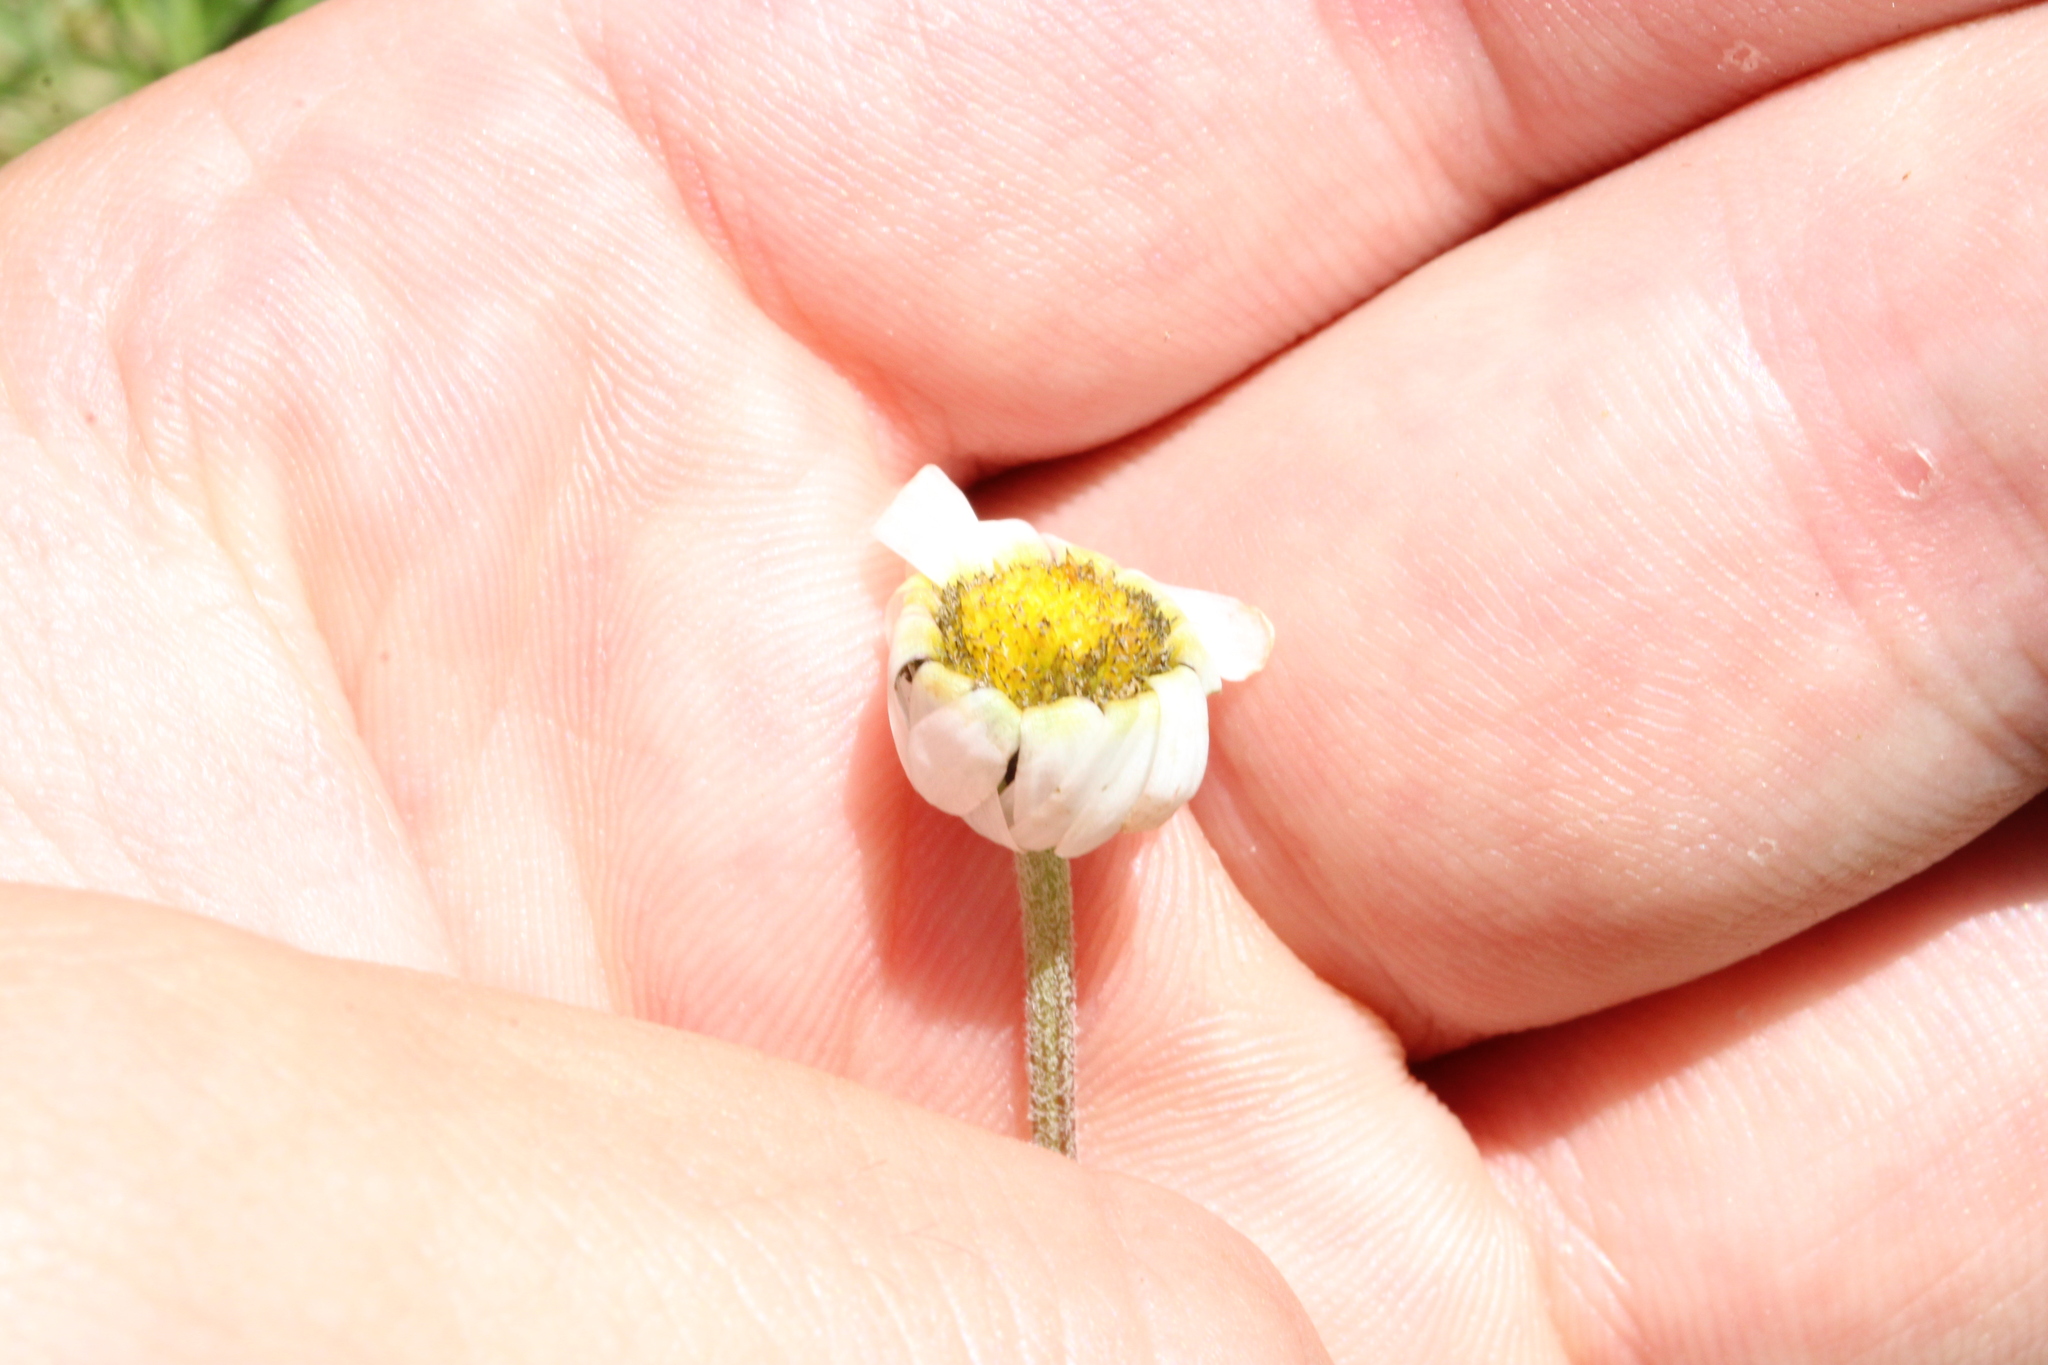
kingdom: Plantae
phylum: Tracheophyta
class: Magnoliopsida
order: Asterales
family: Asteraceae
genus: Leucanthemopsis
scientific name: Leucanthemopsis alpina
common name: Alpine moon daisy
